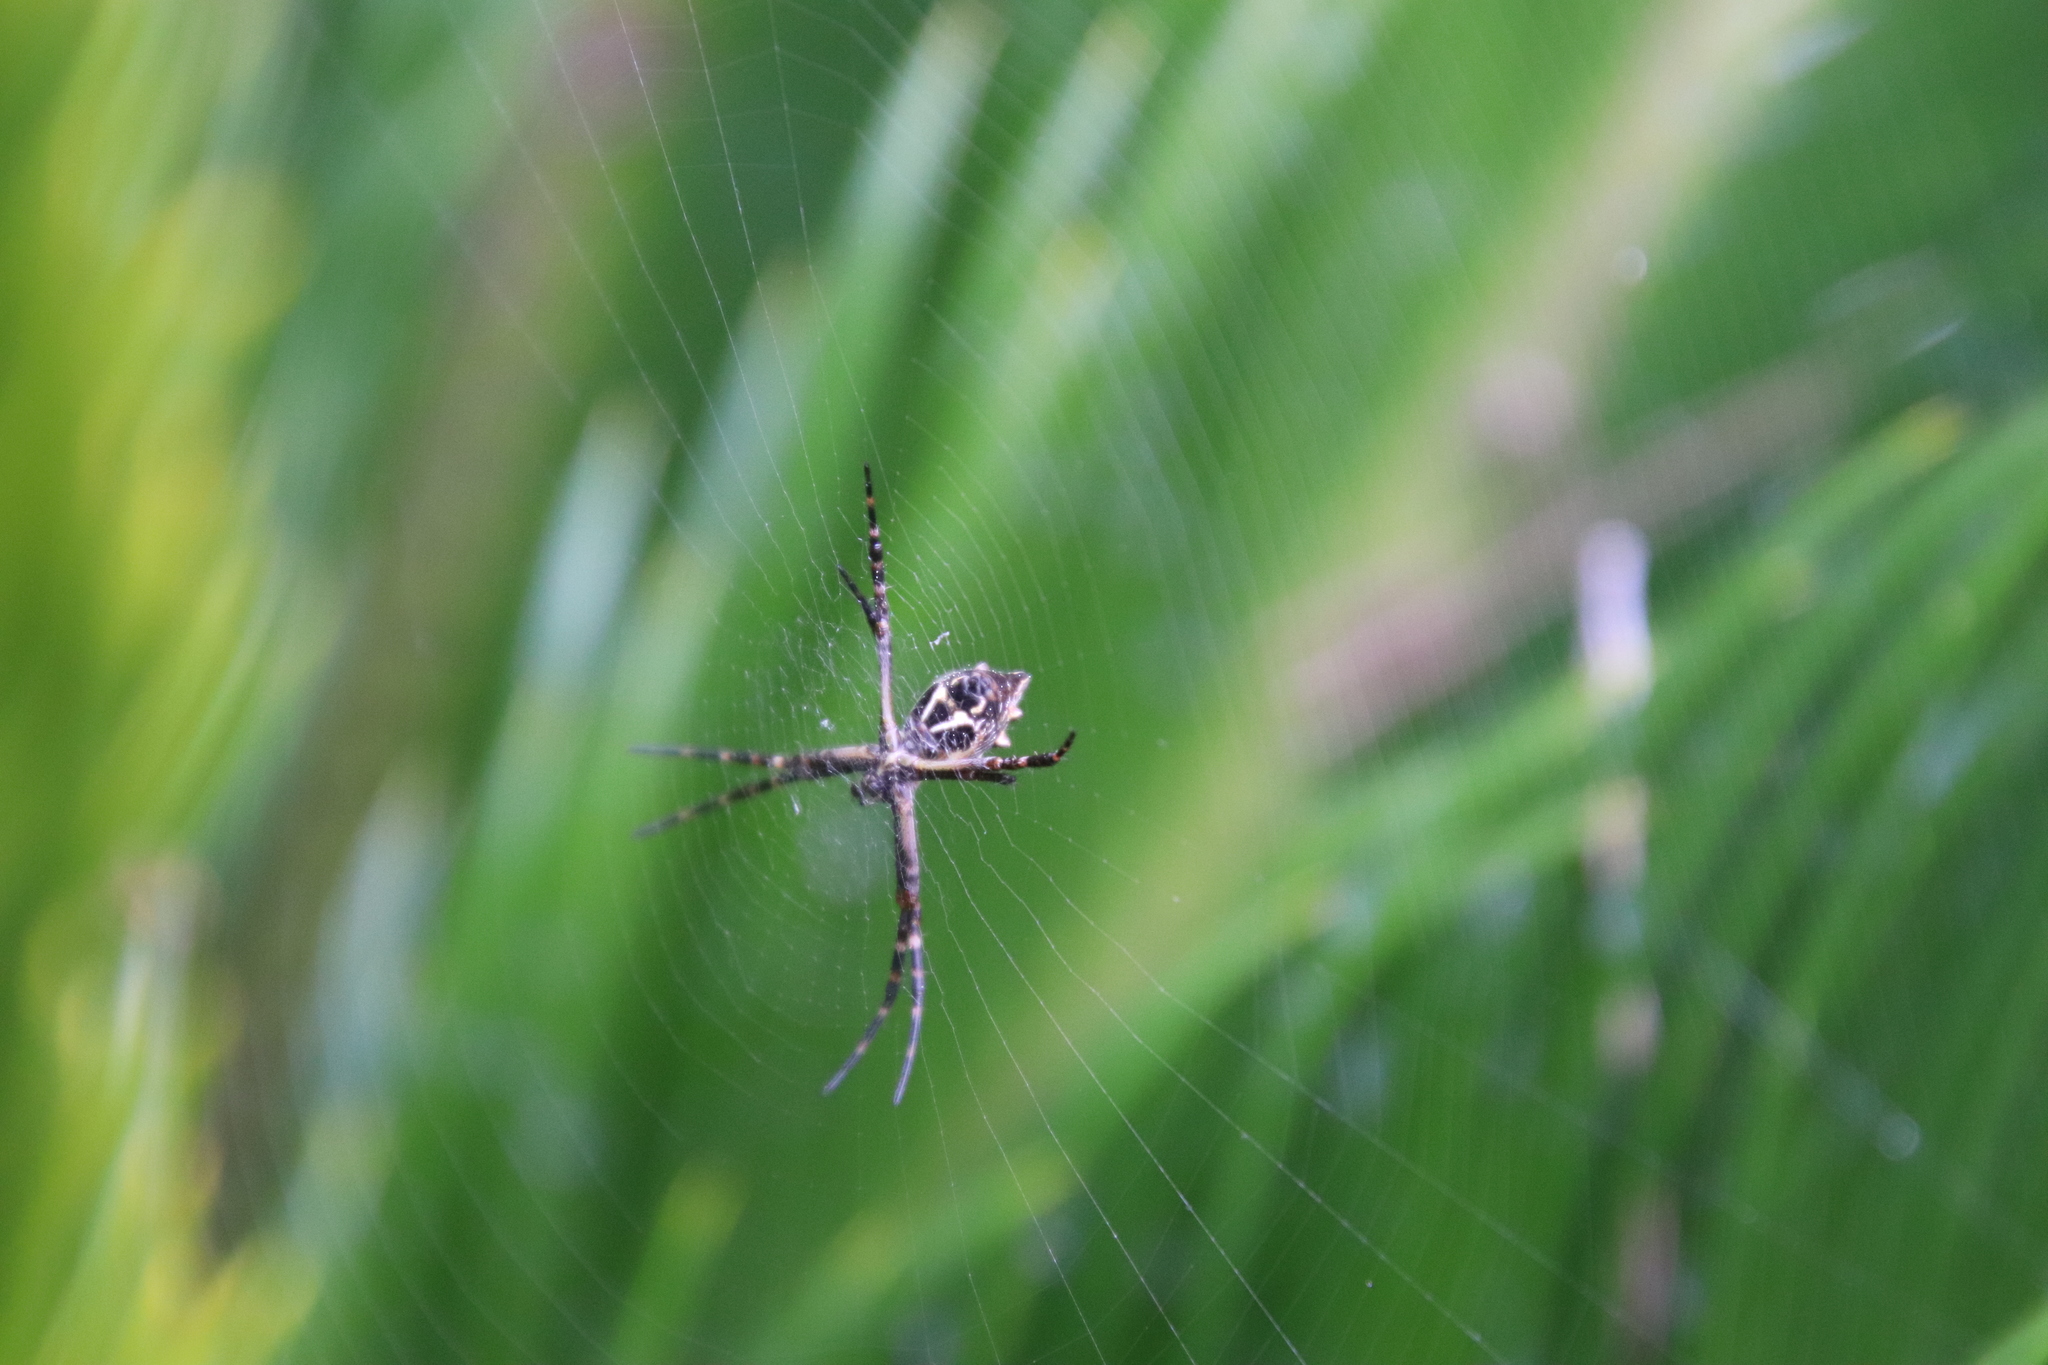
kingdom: Animalia
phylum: Arthropoda
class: Arachnida
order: Araneae
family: Araneidae
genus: Argiope
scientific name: Argiope argentata
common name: Orb weavers
